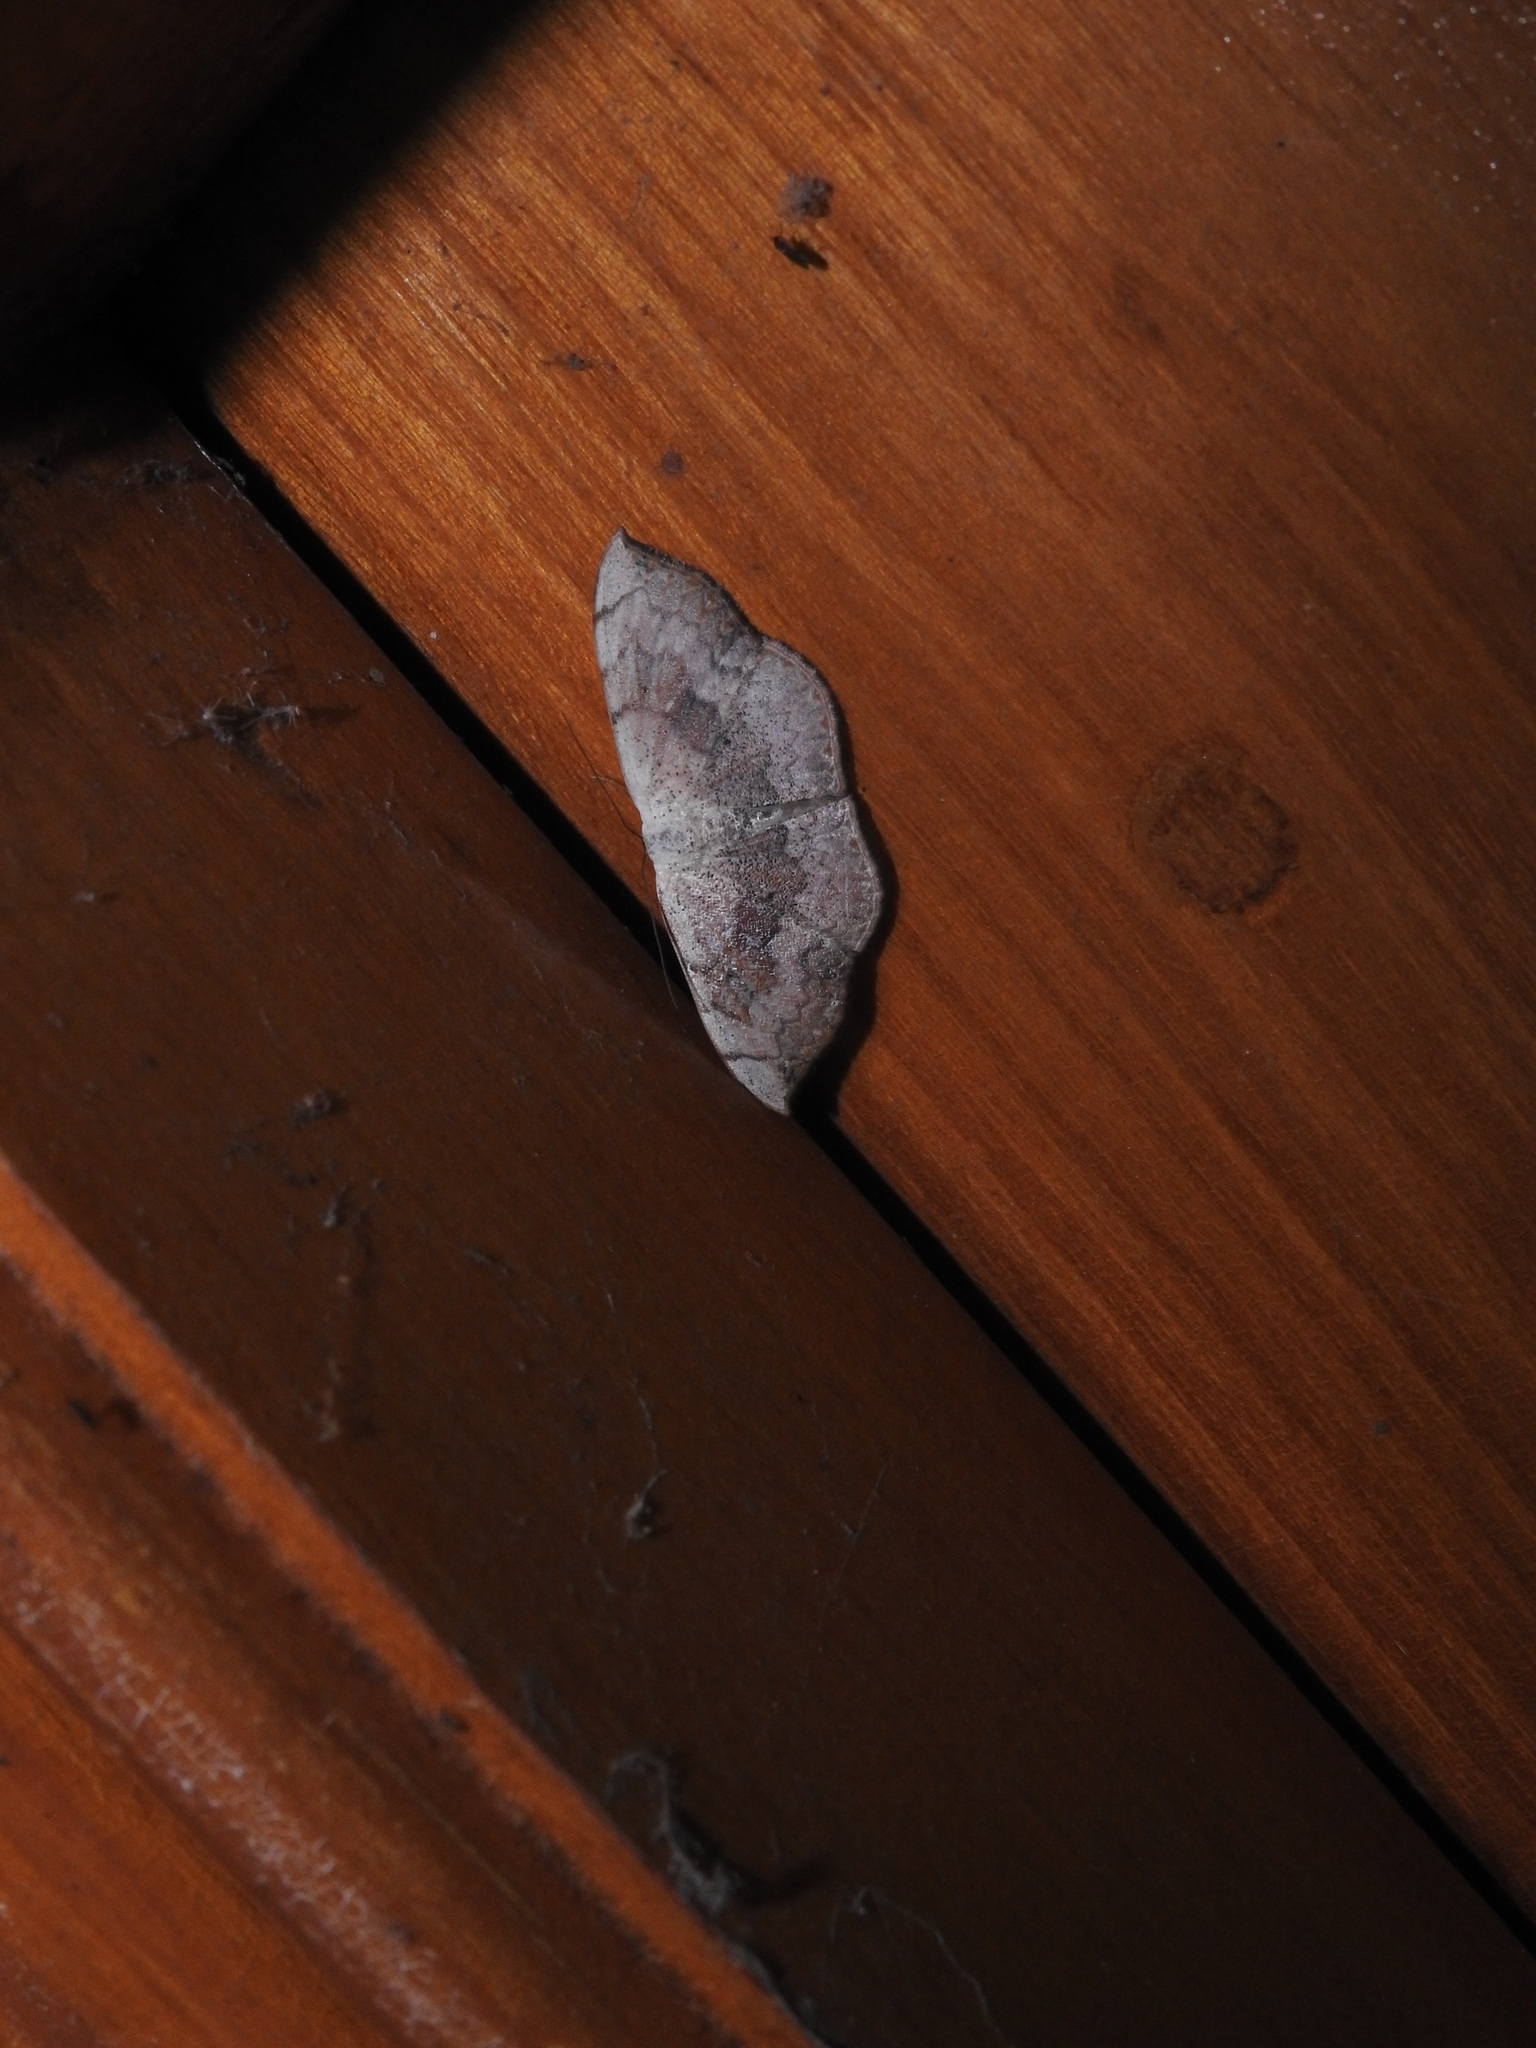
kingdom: Animalia
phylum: Arthropoda
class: Insecta
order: Lepidoptera
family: Geometridae
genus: Somatina
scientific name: Somatina purpurascens
